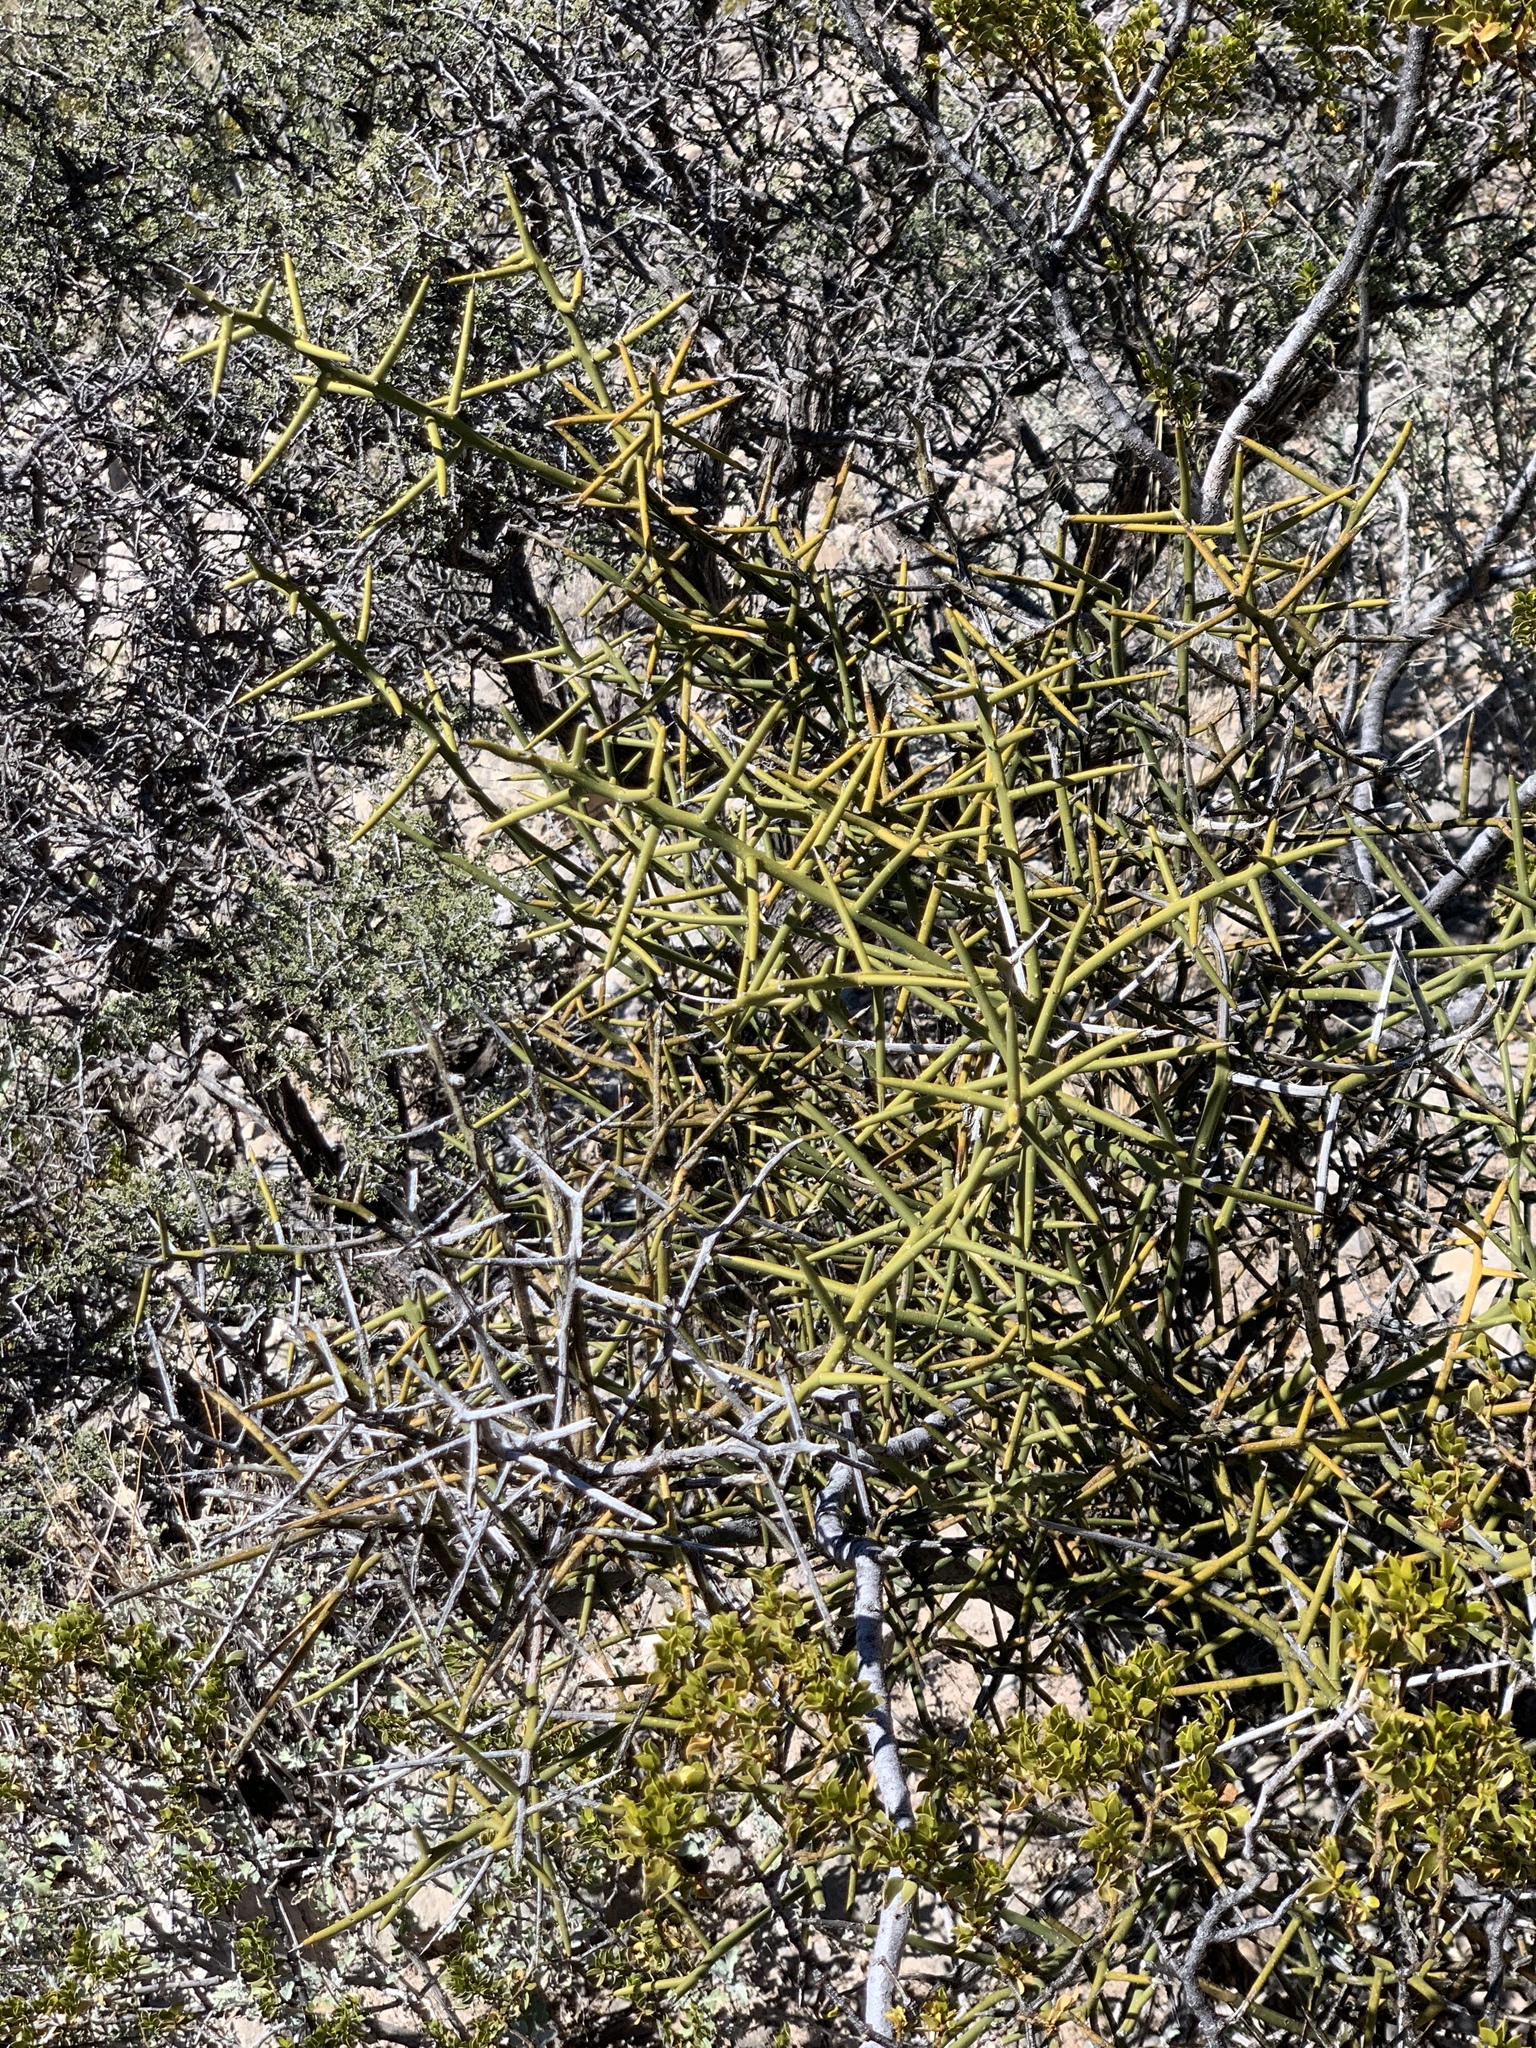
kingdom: Plantae
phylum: Tracheophyta
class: Magnoliopsida
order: Brassicales
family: Koeberliniaceae
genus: Koeberlinia
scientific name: Koeberlinia spinosa
